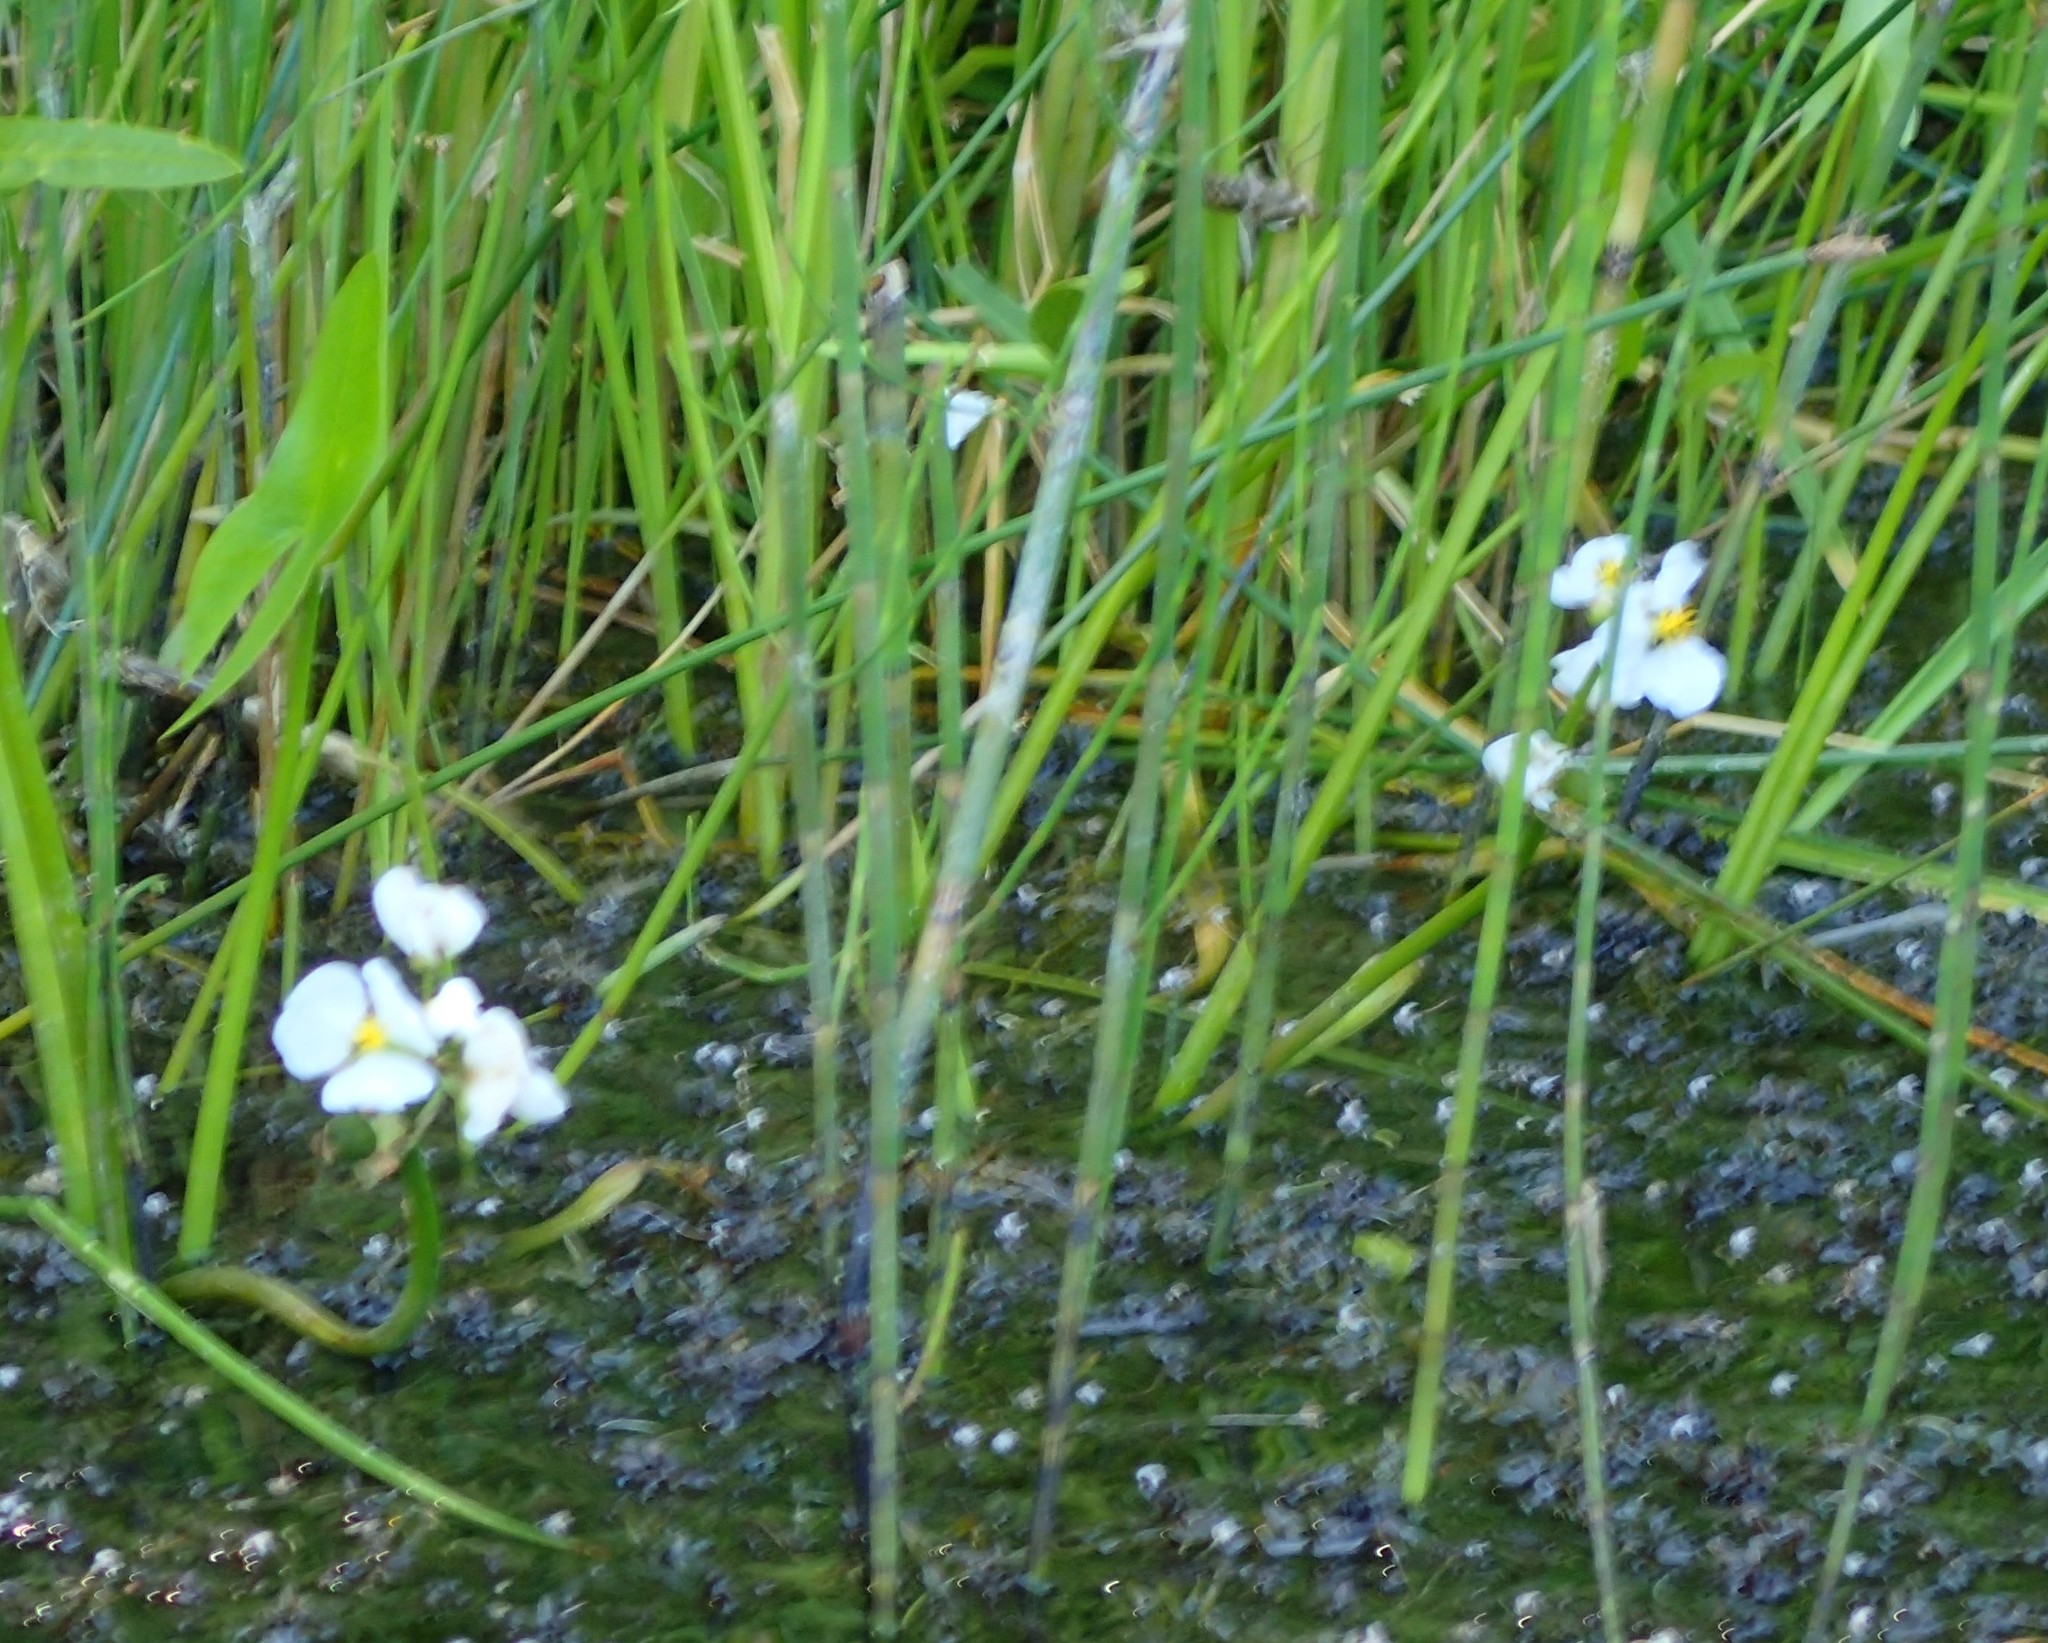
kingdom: Plantae
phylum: Tracheophyta
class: Liliopsida
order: Alismatales
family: Alismataceae
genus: Sagittaria
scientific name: Sagittaria cuneata
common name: Northern arrowhead
